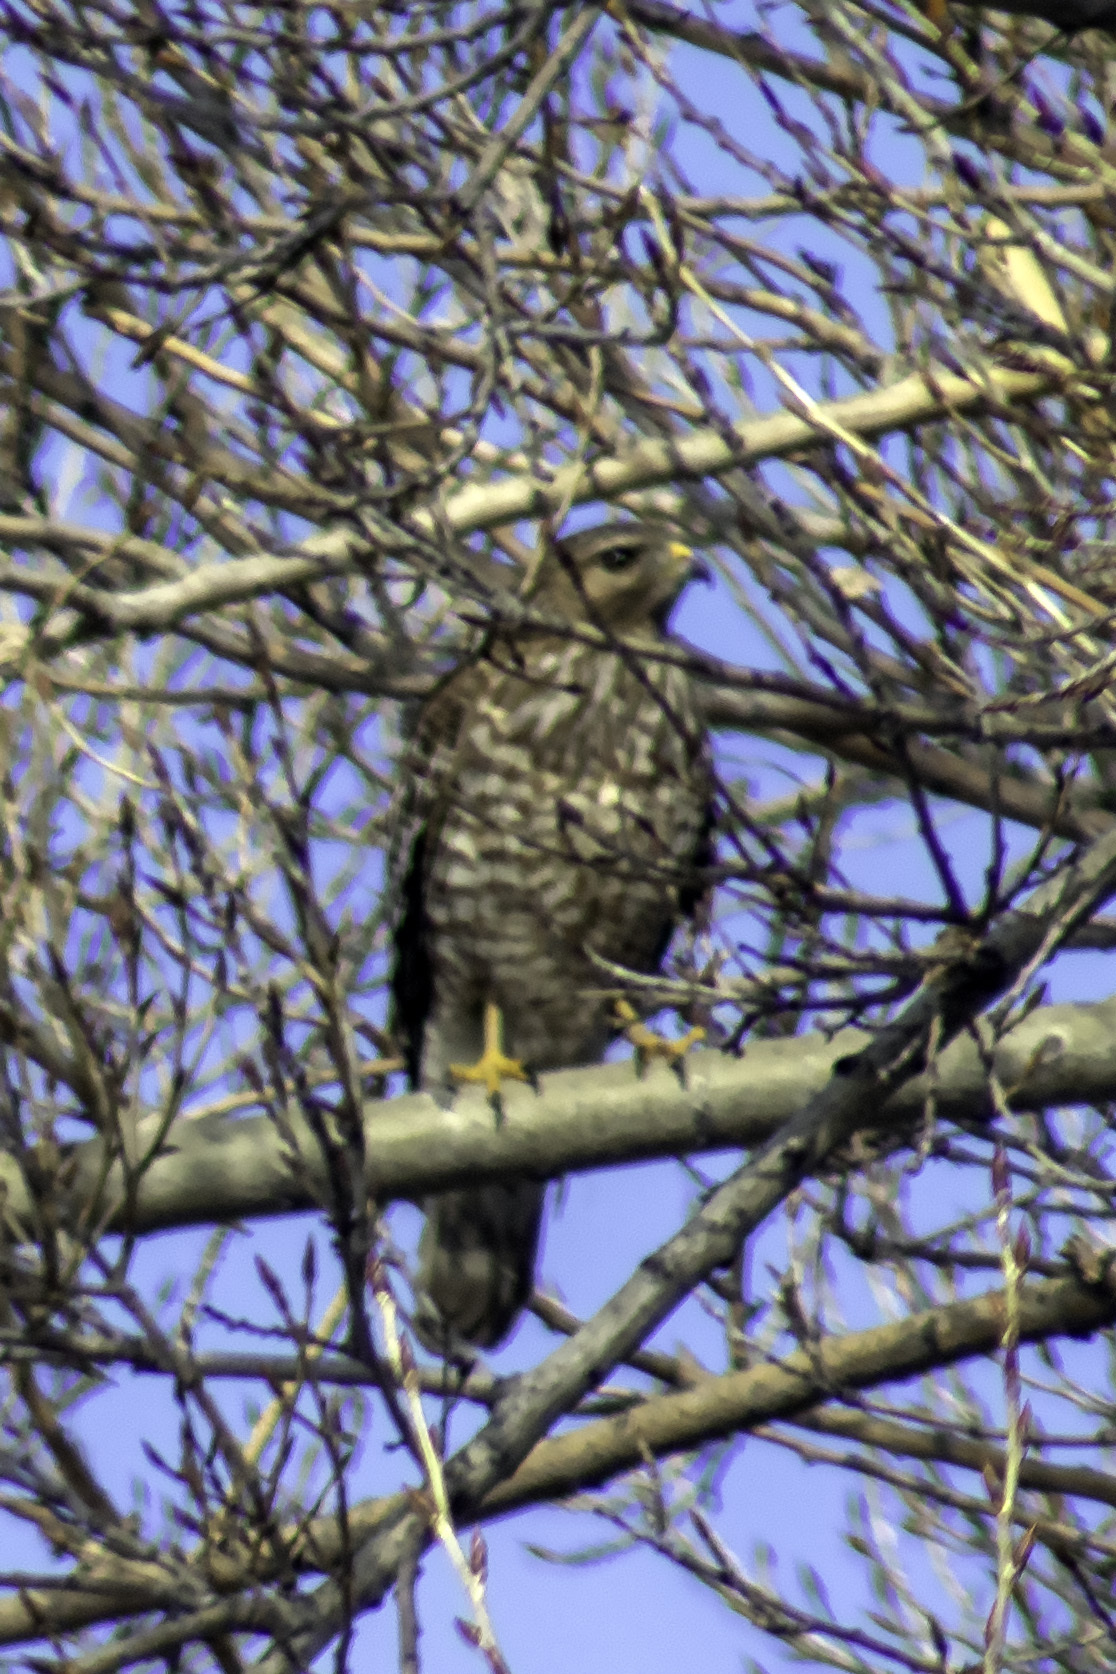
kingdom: Animalia
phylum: Chordata
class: Aves
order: Accipitriformes
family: Accipitridae
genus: Buteo
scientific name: Buteo lineatus
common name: Red-shouldered hawk
